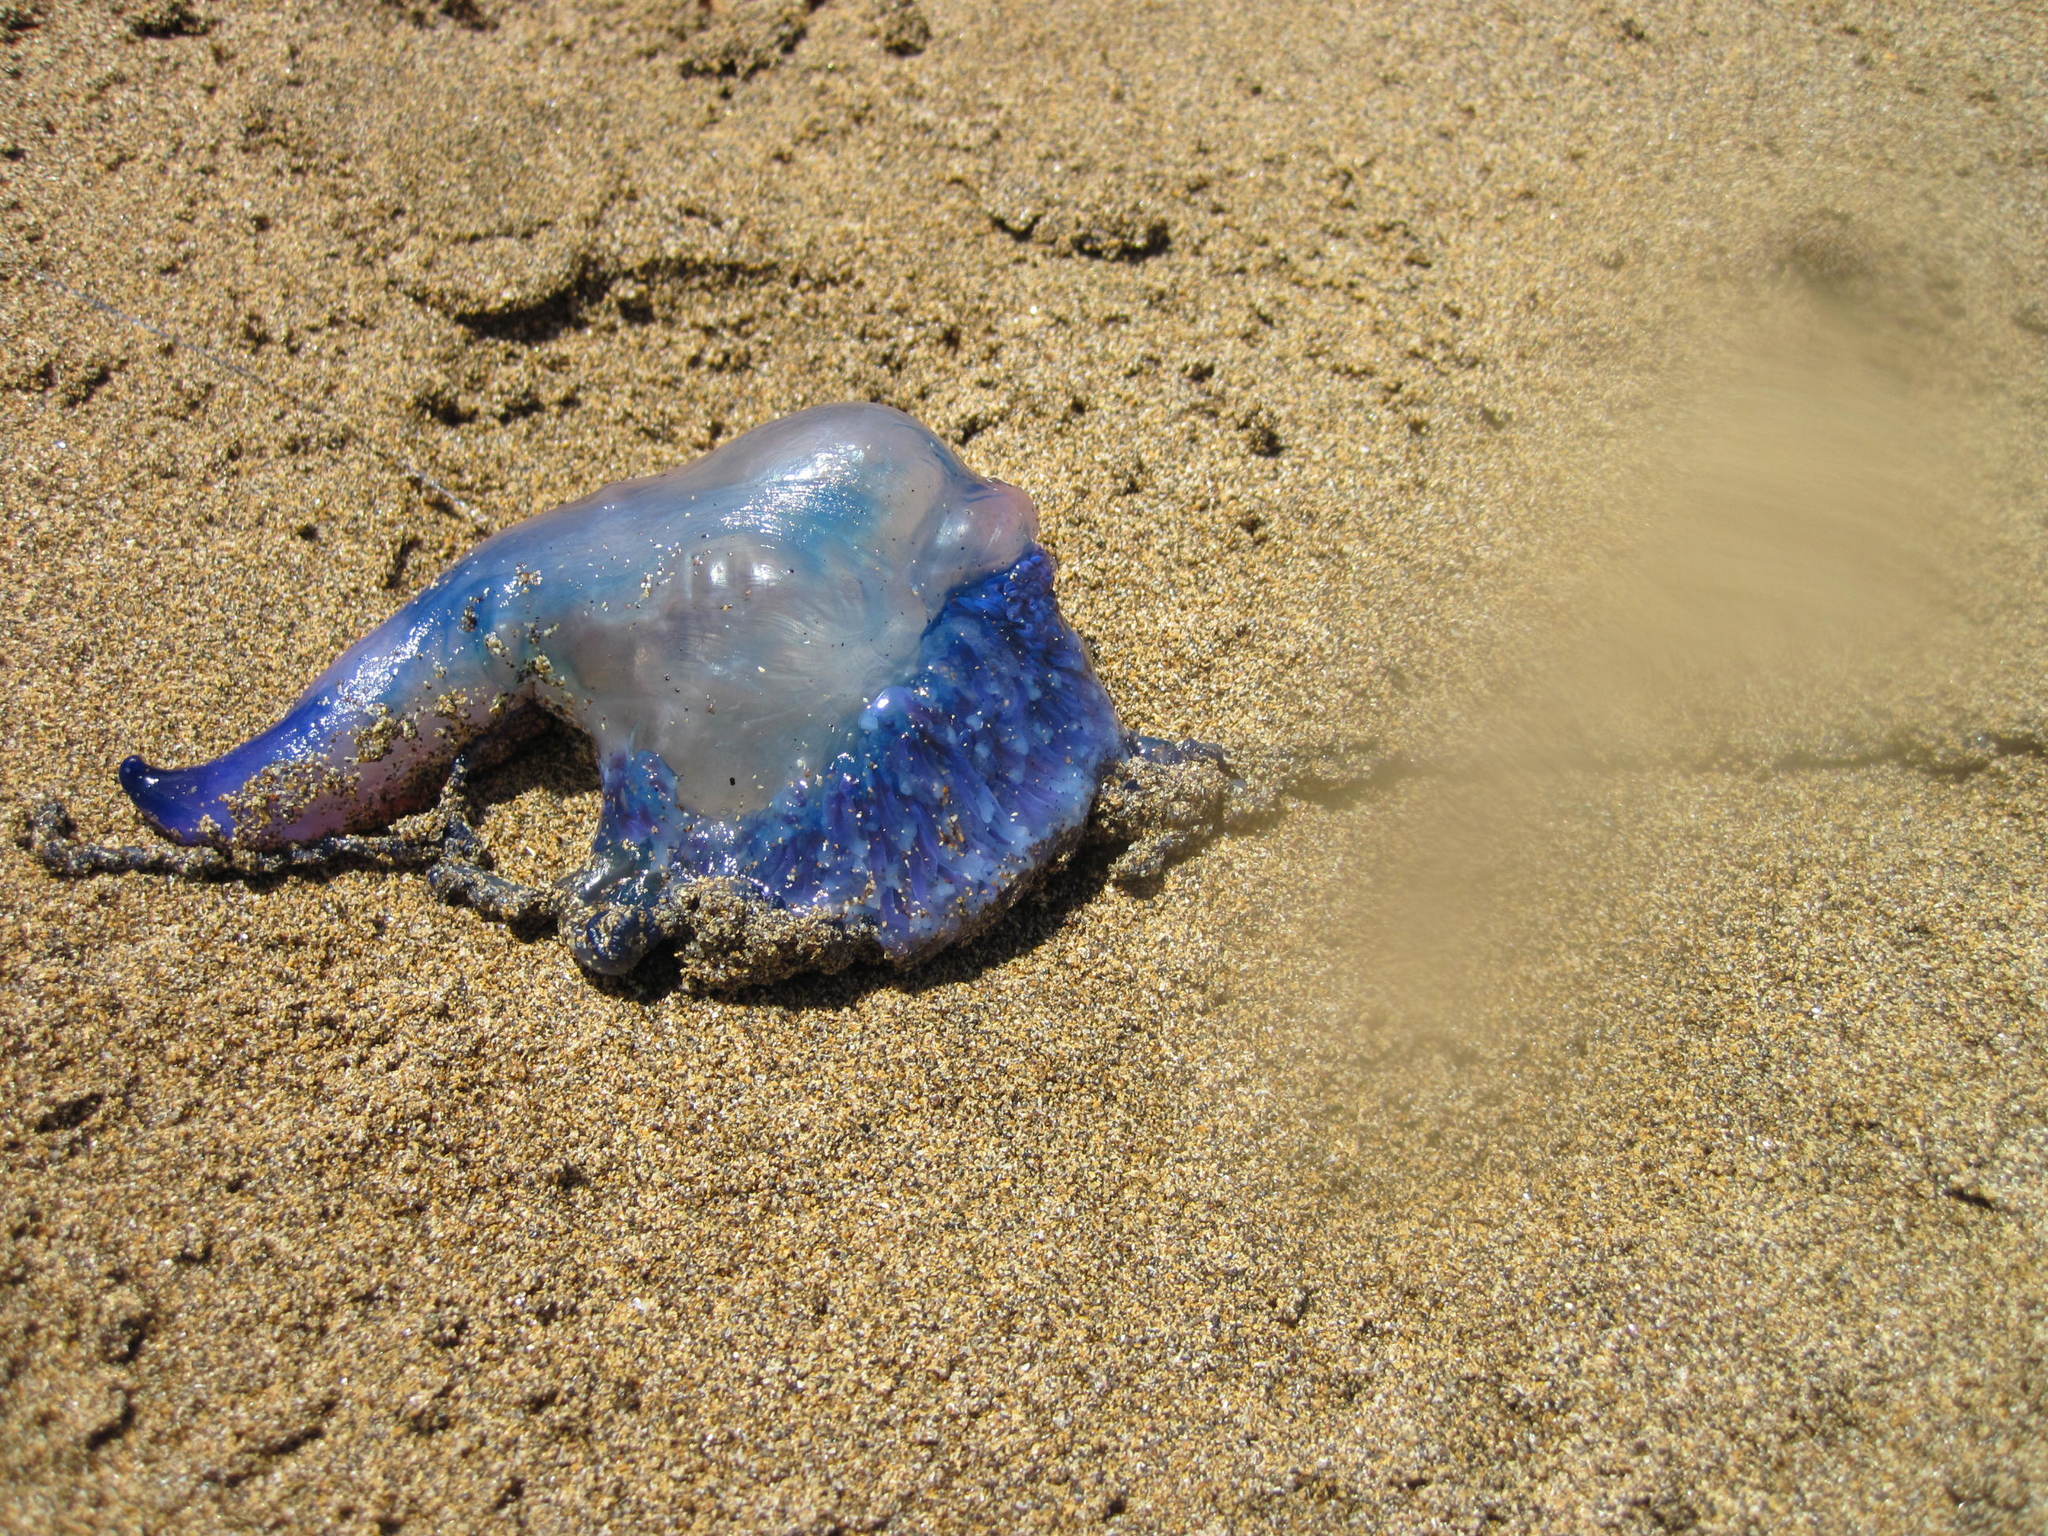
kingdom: Animalia
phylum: Cnidaria
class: Hydrozoa
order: Siphonophorae
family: Physaliidae
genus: Physalia
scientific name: Physalia physalis
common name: Portuguese man-of-war
